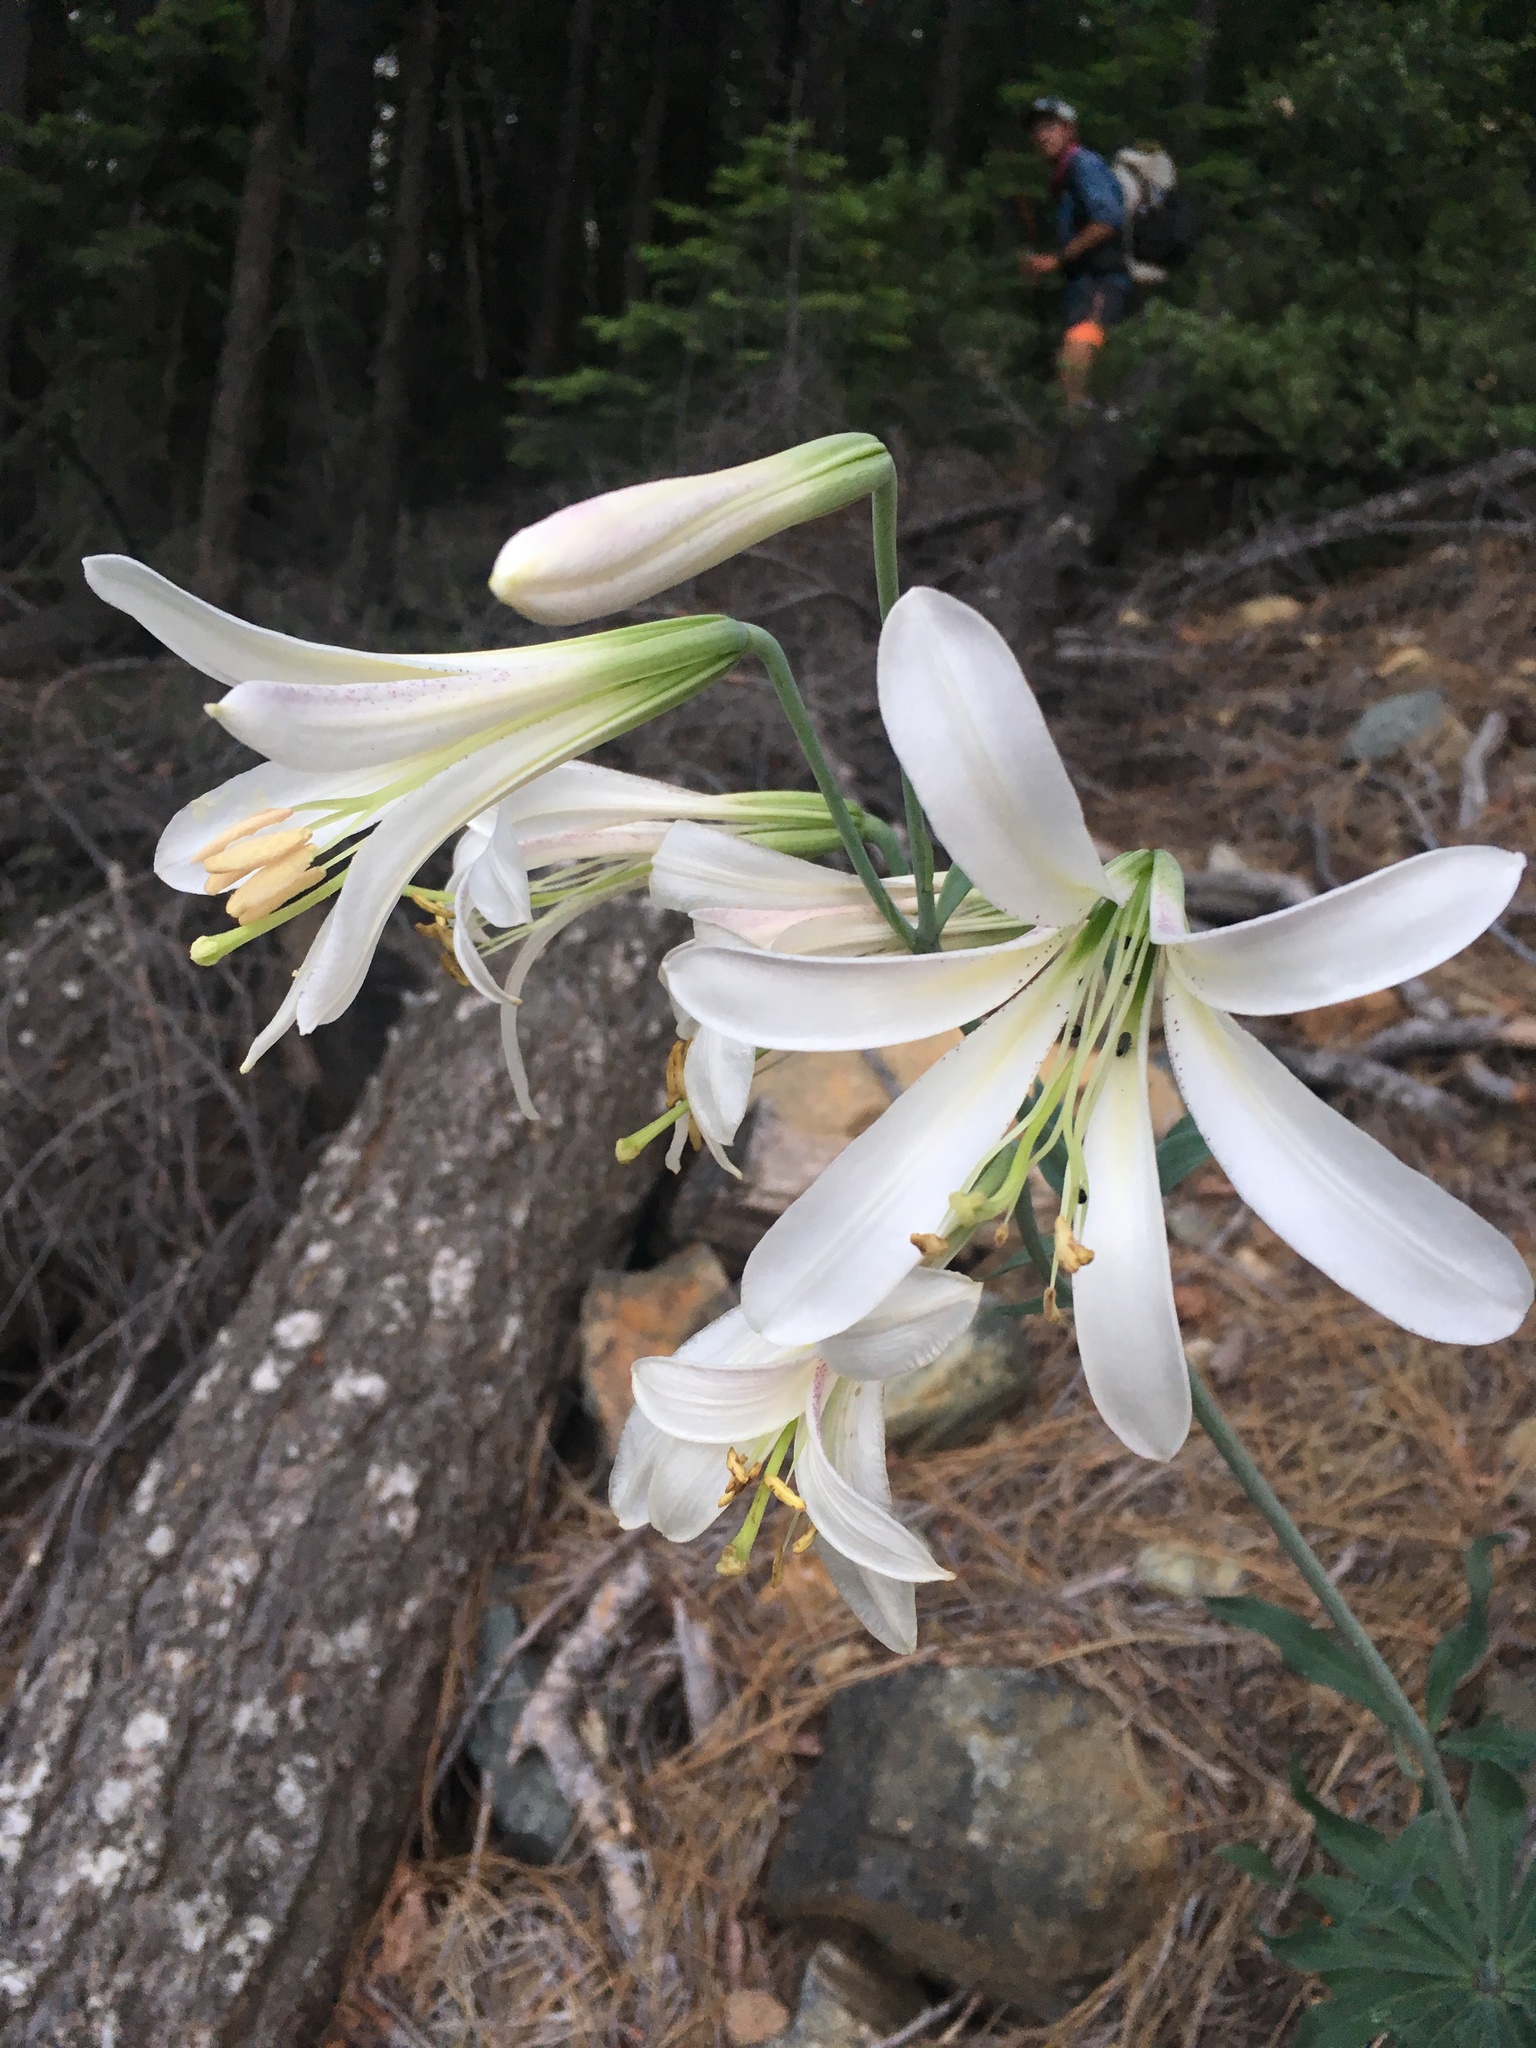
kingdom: Plantae
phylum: Tracheophyta
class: Liliopsida
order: Liliales
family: Liliaceae
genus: Lilium
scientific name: Lilium washingtonianum
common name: Washington lily
